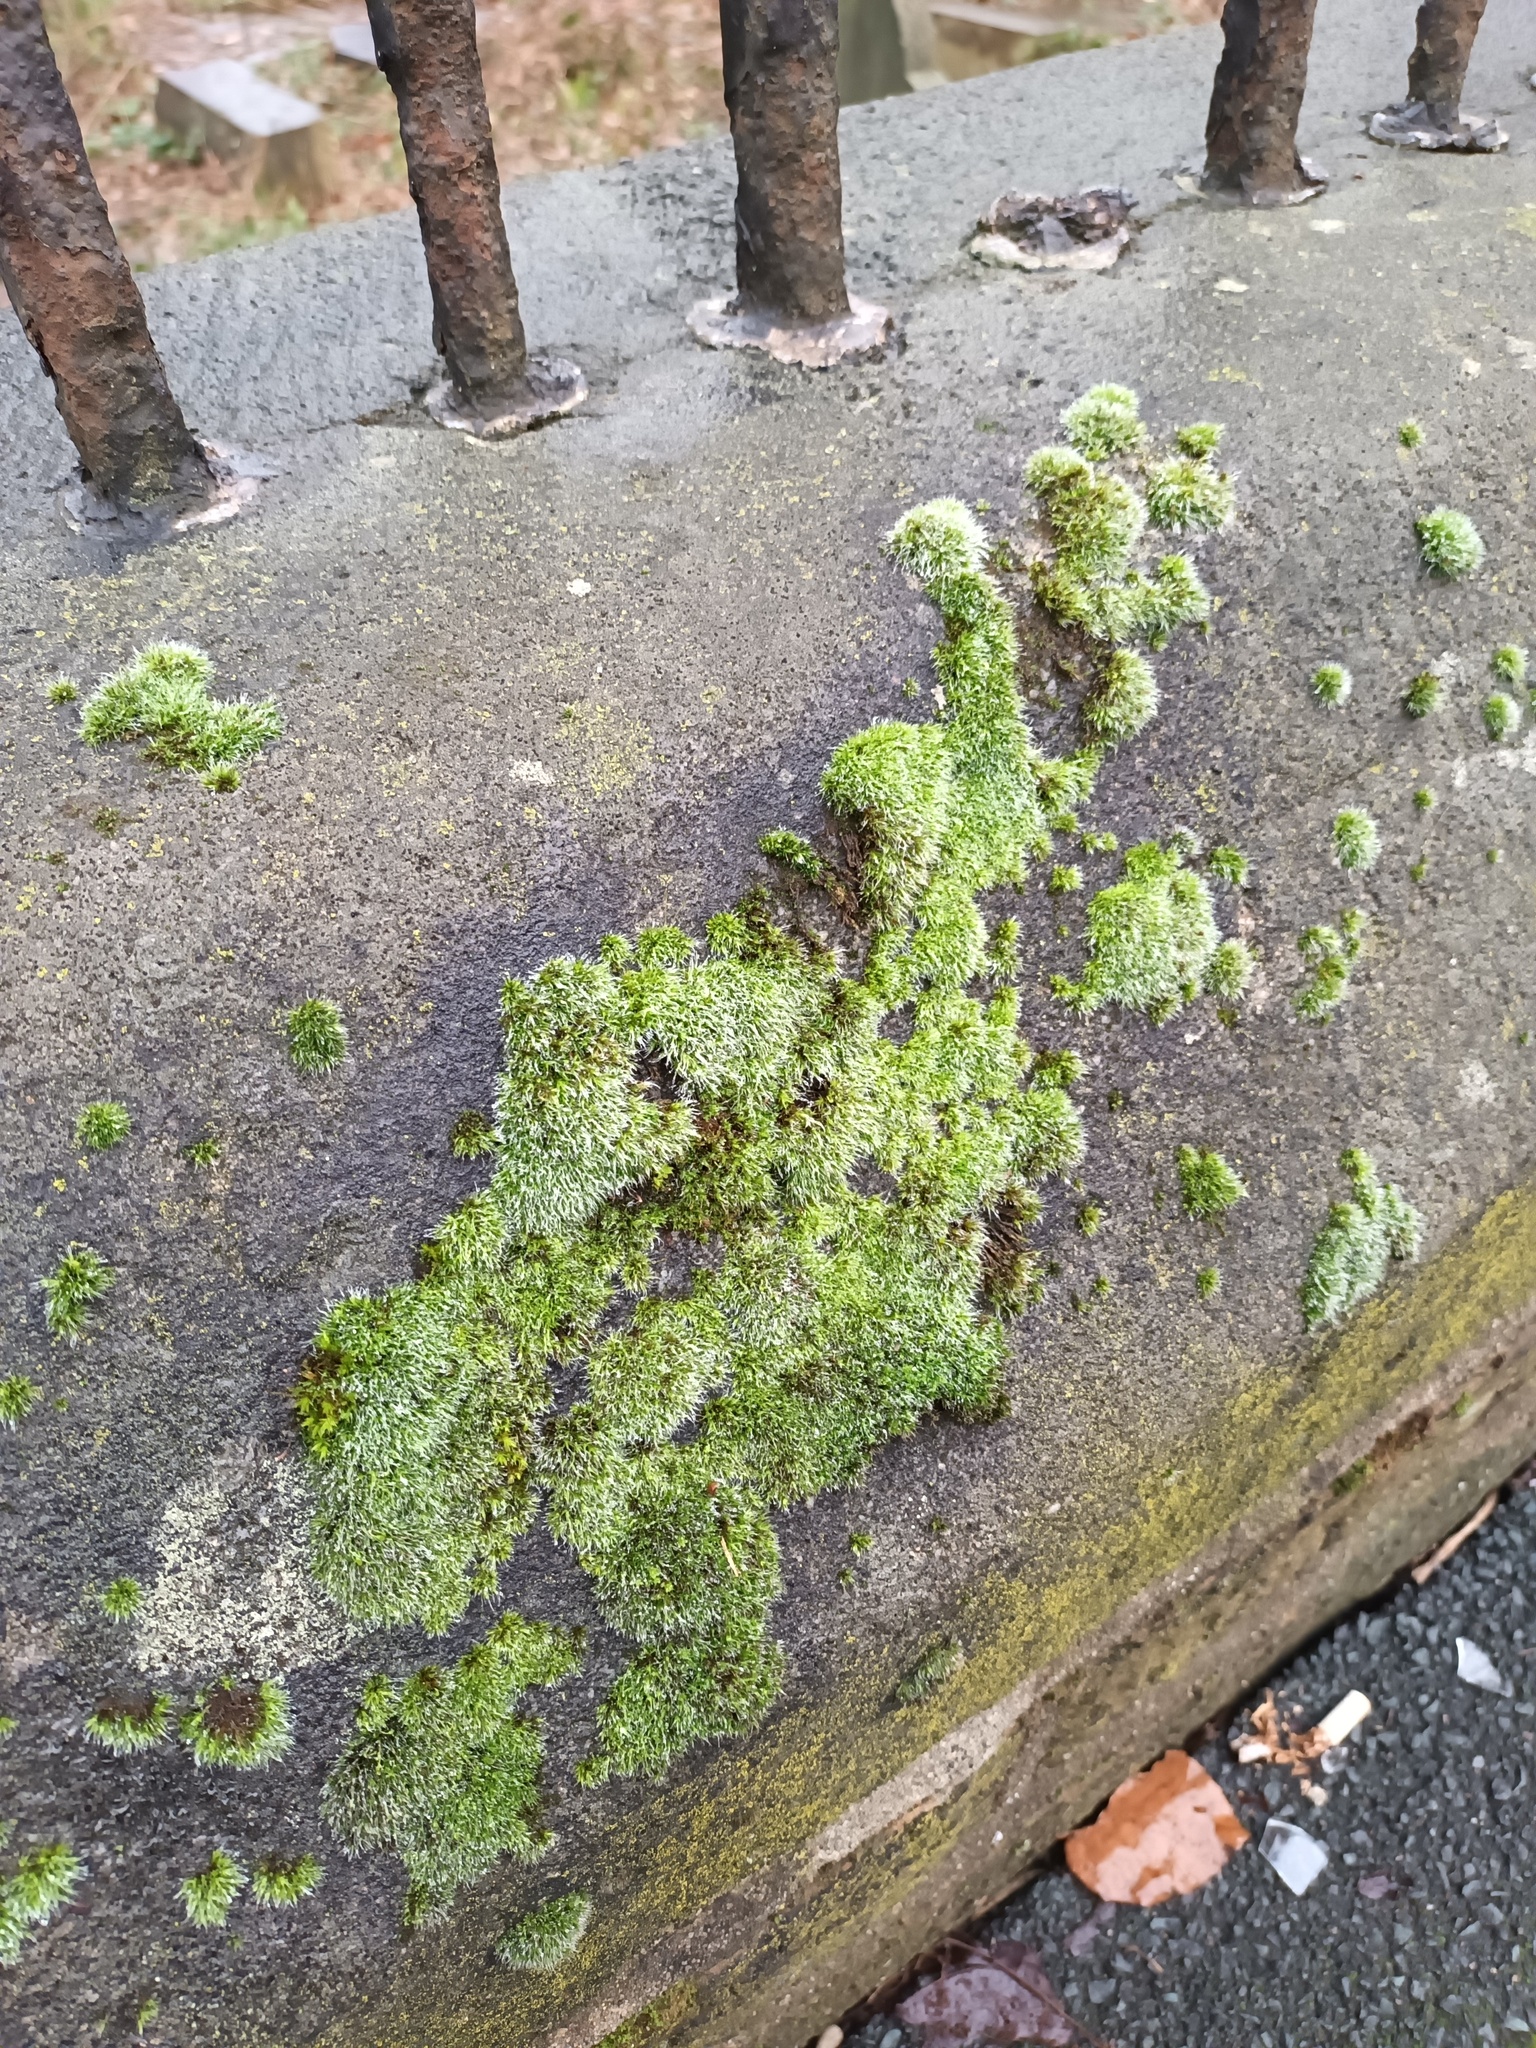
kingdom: Plantae
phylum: Bryophyta
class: Bryopsida
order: Grimmiales
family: Grimmiaceae
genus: Grimmia
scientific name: Grimmia pulvinata
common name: Grey-cushioned grimmia
